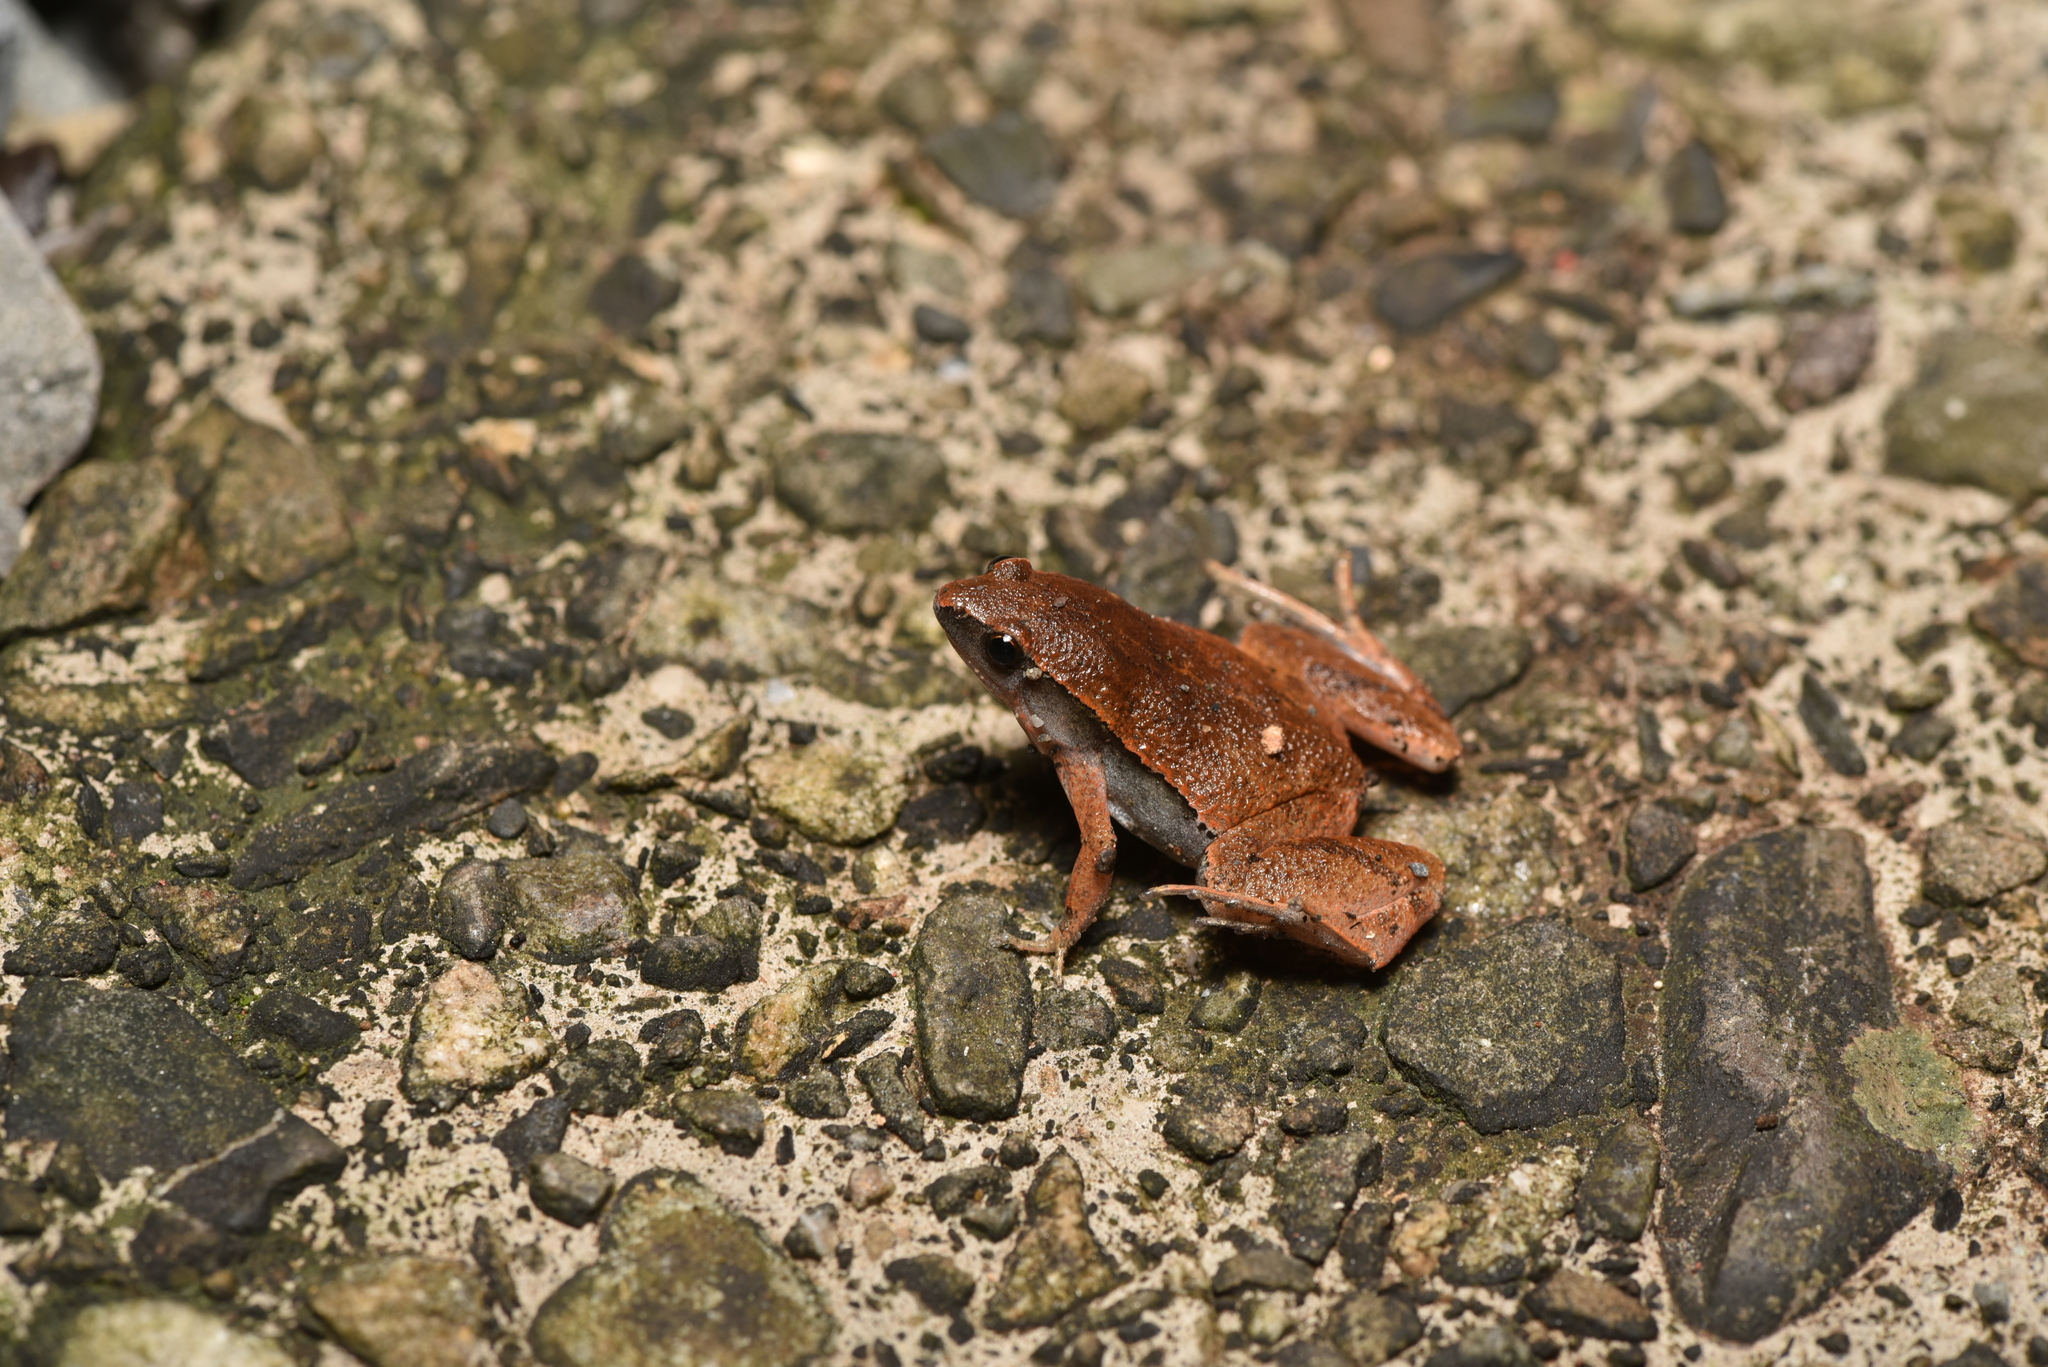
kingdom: Animalia
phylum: Chordata
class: Amphibia
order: Anura
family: Microhylidae
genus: Microhyla
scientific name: Microhyla heymonsi
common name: Taiwan rice frog,dark sided chorus frog
